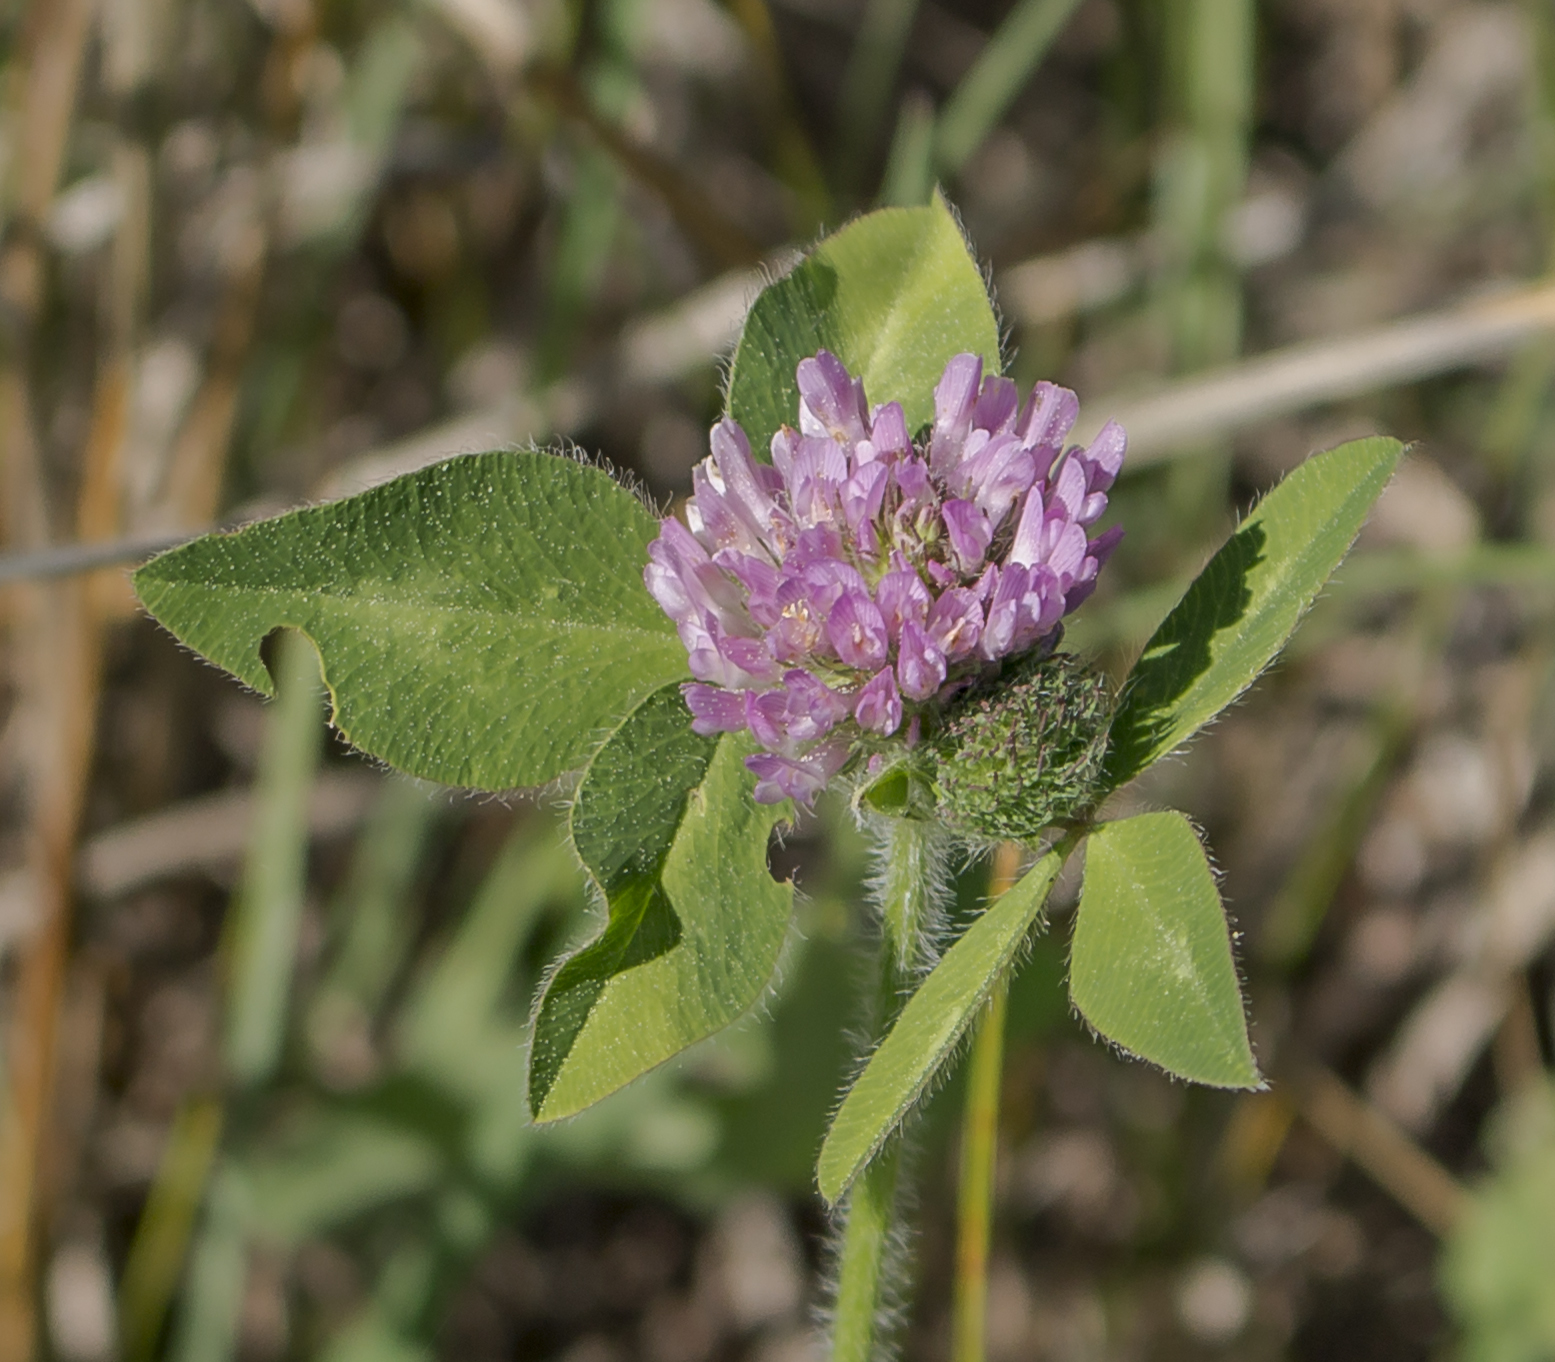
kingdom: Plantae
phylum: Tracheophyta
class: Magnoliopsida
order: Fabales
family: Fabaceae
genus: Trifolium
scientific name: Trifolium pratense
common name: Red clover
